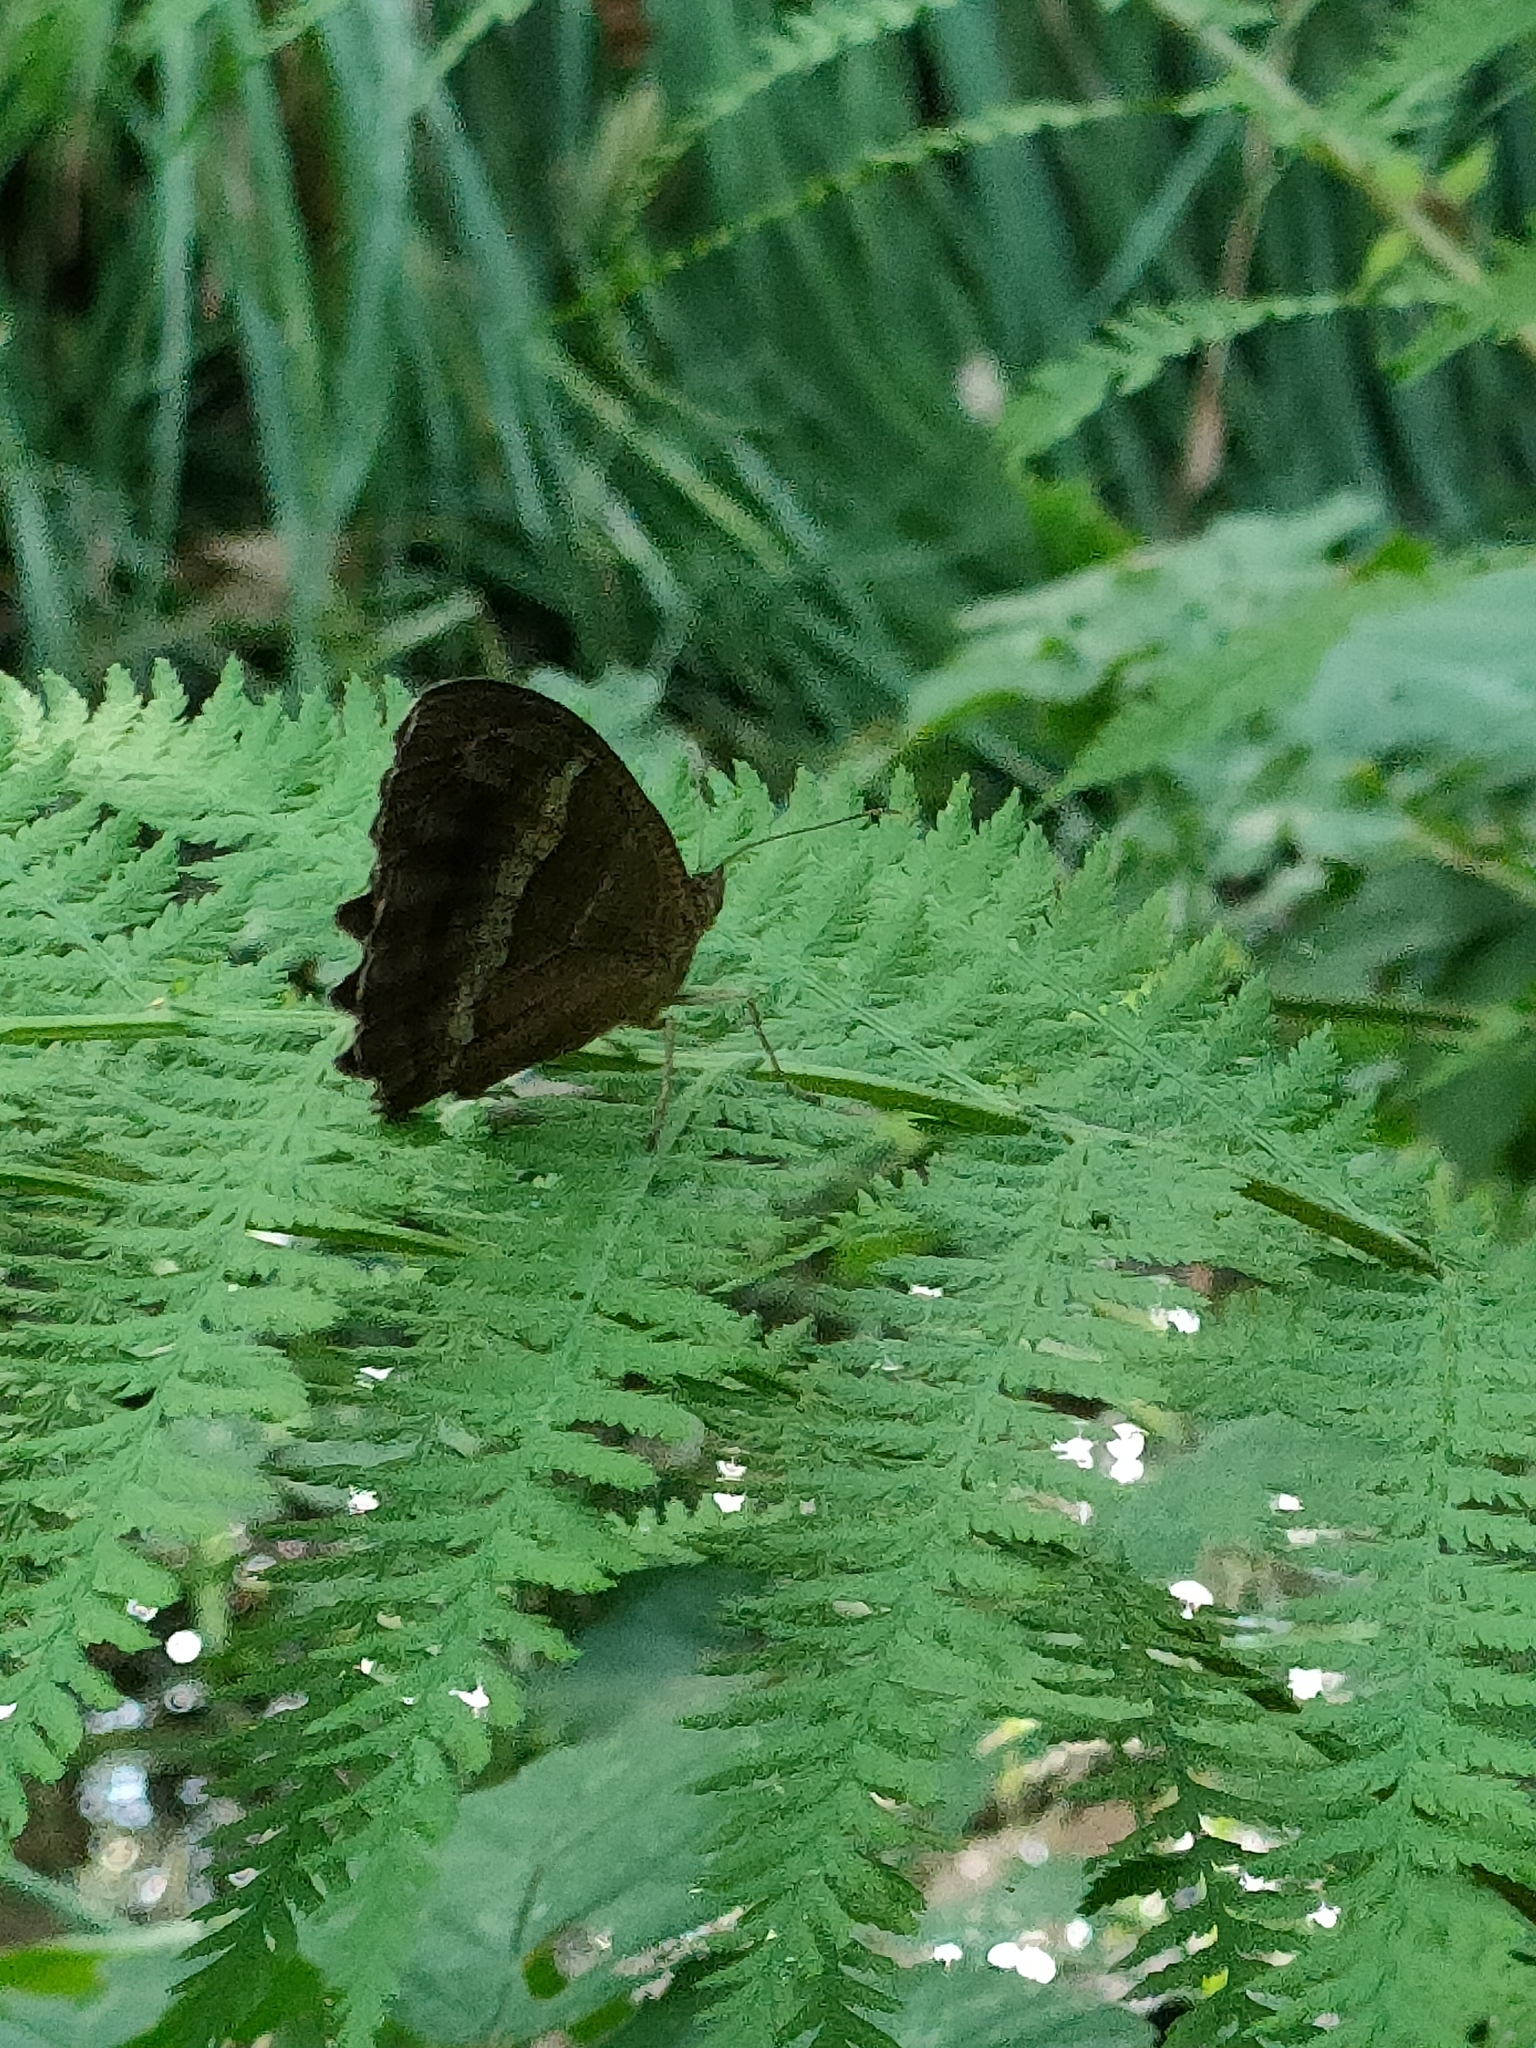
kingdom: Animalia
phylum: Arthropoda
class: Insecta
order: Lepidoptera
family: Nymphalidae
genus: Minois
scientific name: Minois dryas
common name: Dryad
